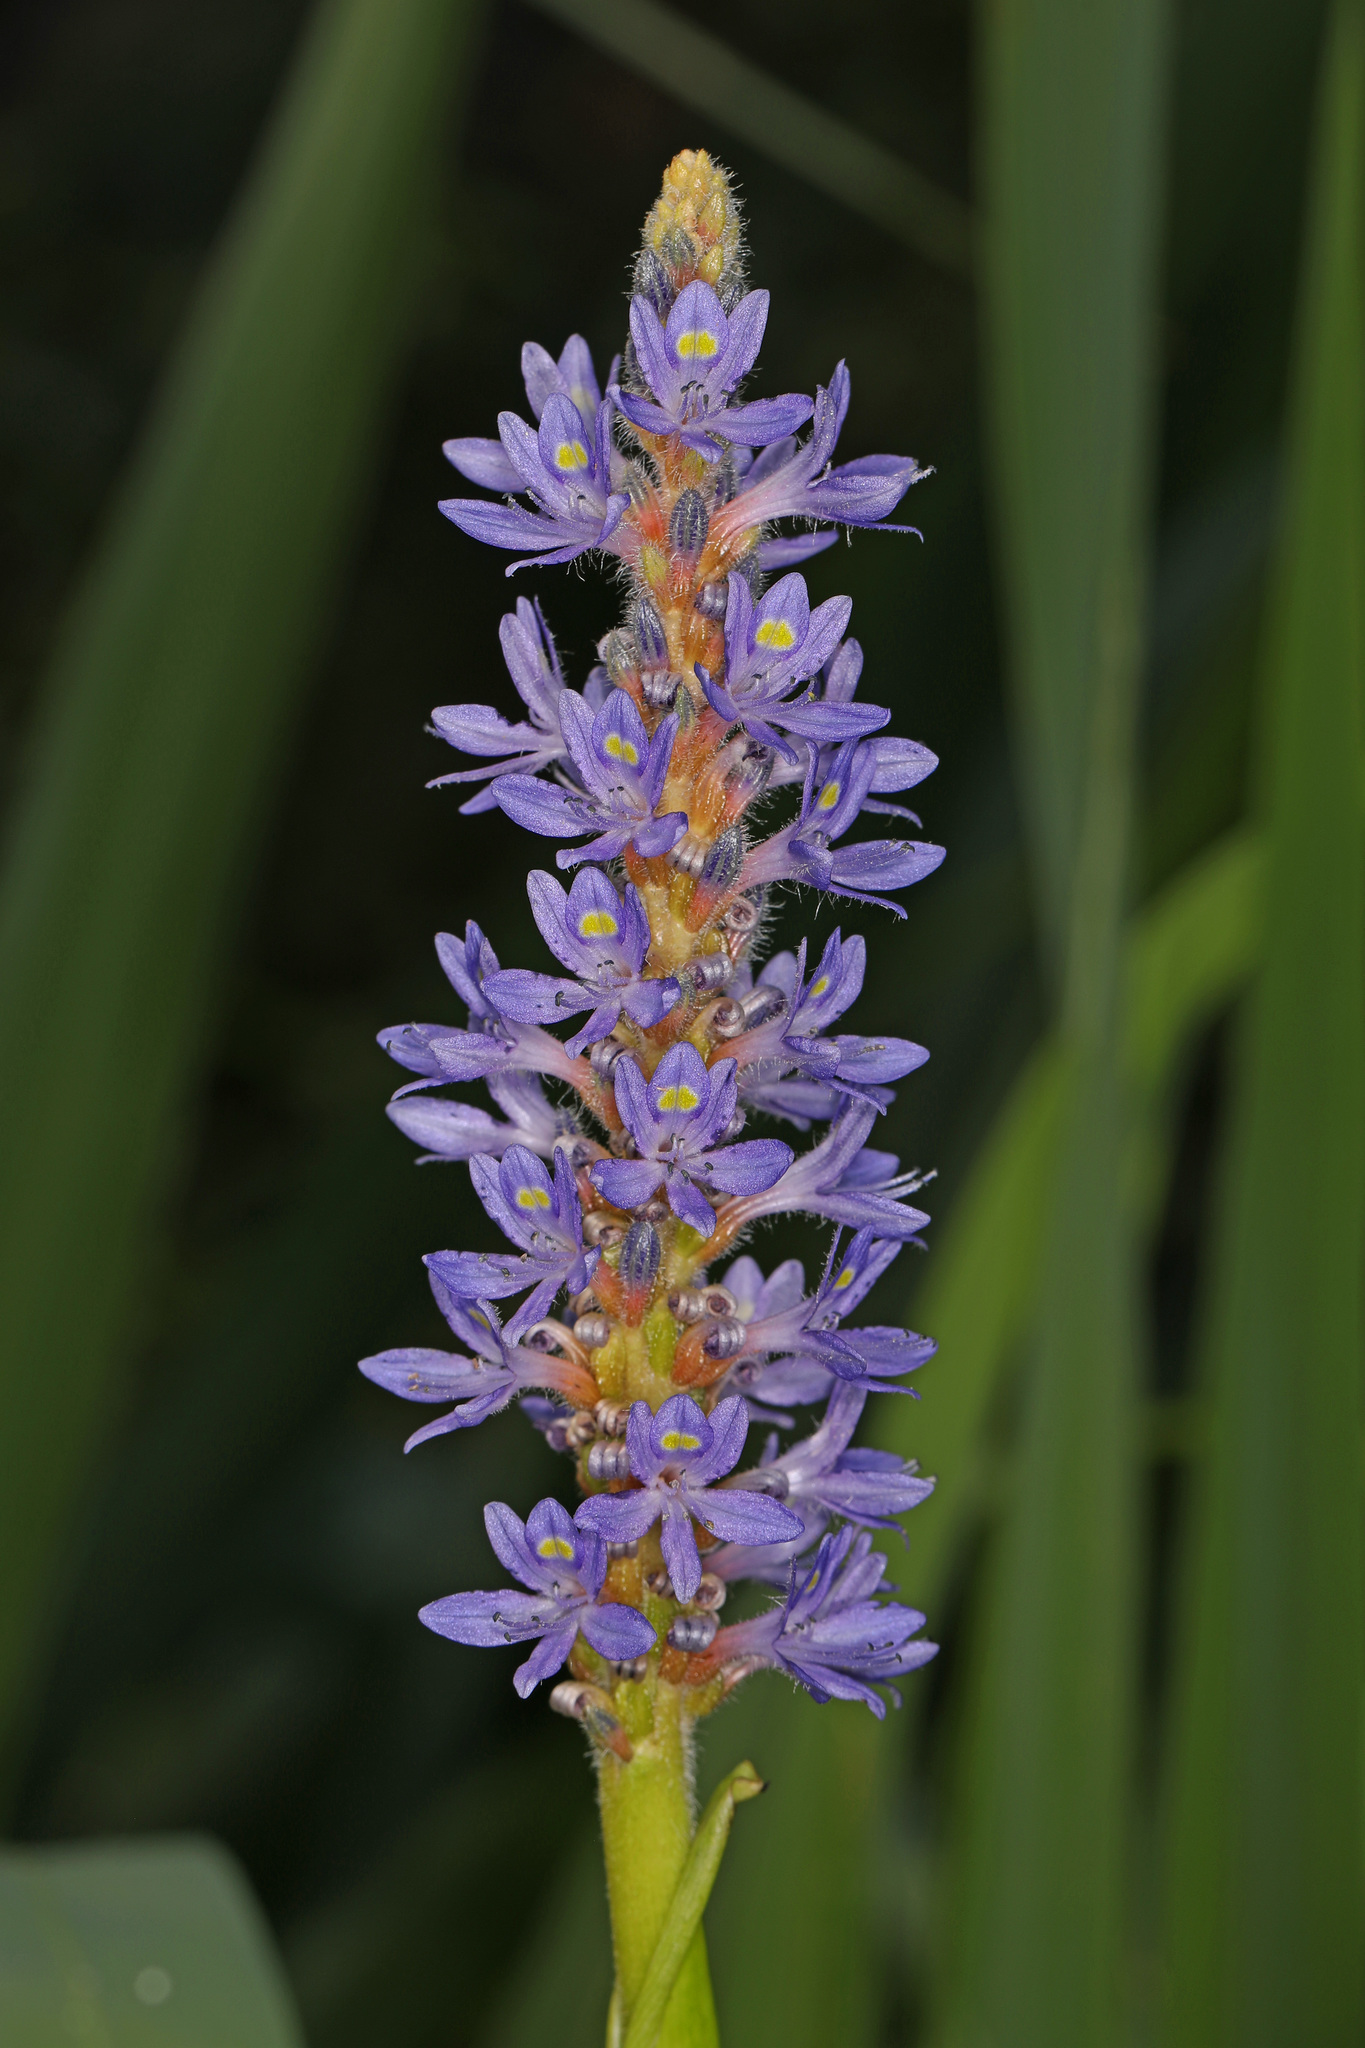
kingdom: Plantae
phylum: Tracheophyta
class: Liliopsida
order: Commelinales
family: Pontederiaceae
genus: Pontederia
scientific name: Pontederia cordata
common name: Pickerelweed
